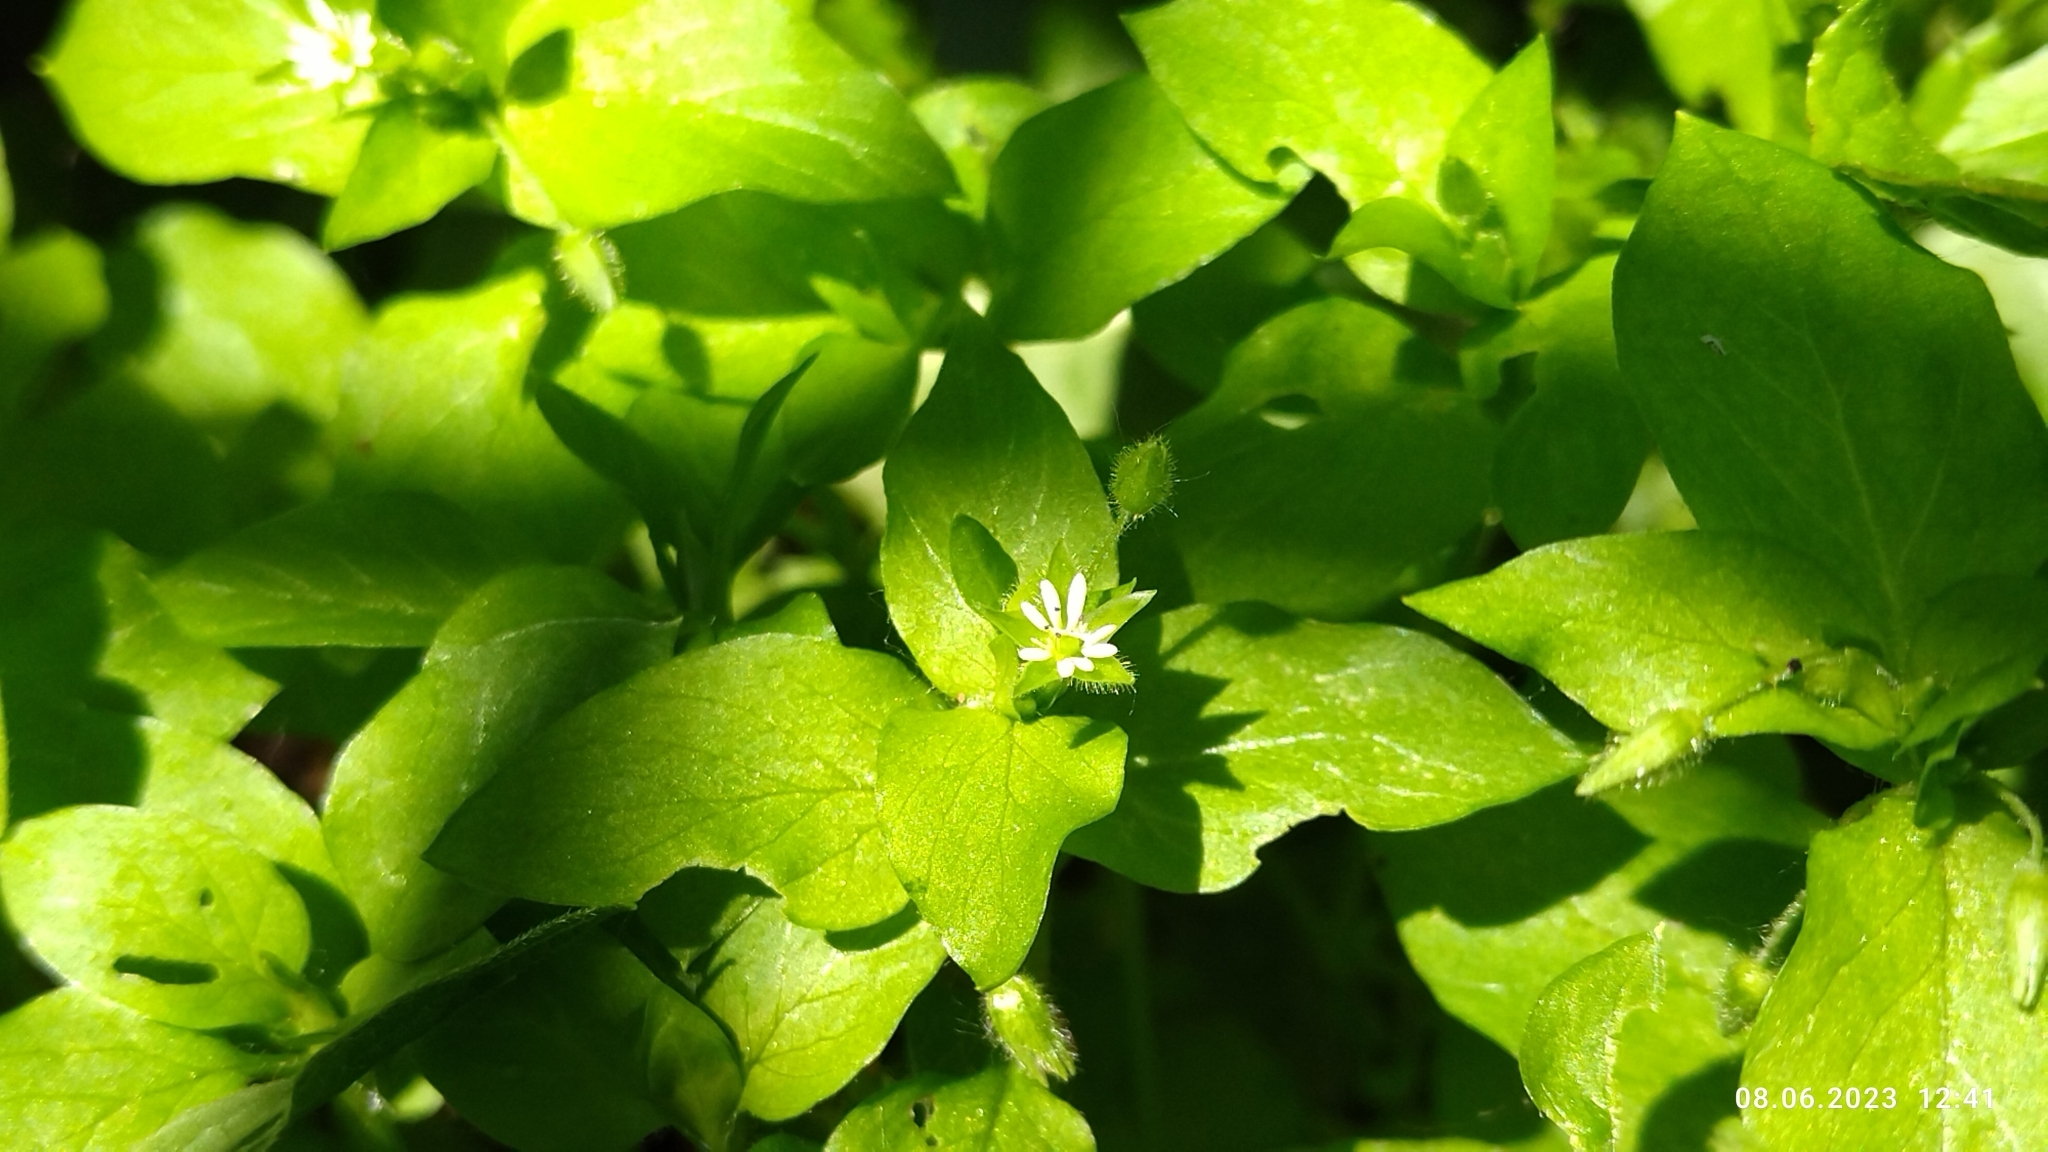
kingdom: Plantae
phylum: Tracheophyta
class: Magnoliopsida
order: Caryophyllales
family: Caryophyllaceae
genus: Stellaria
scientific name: Stellaria media
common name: Common chickweed
